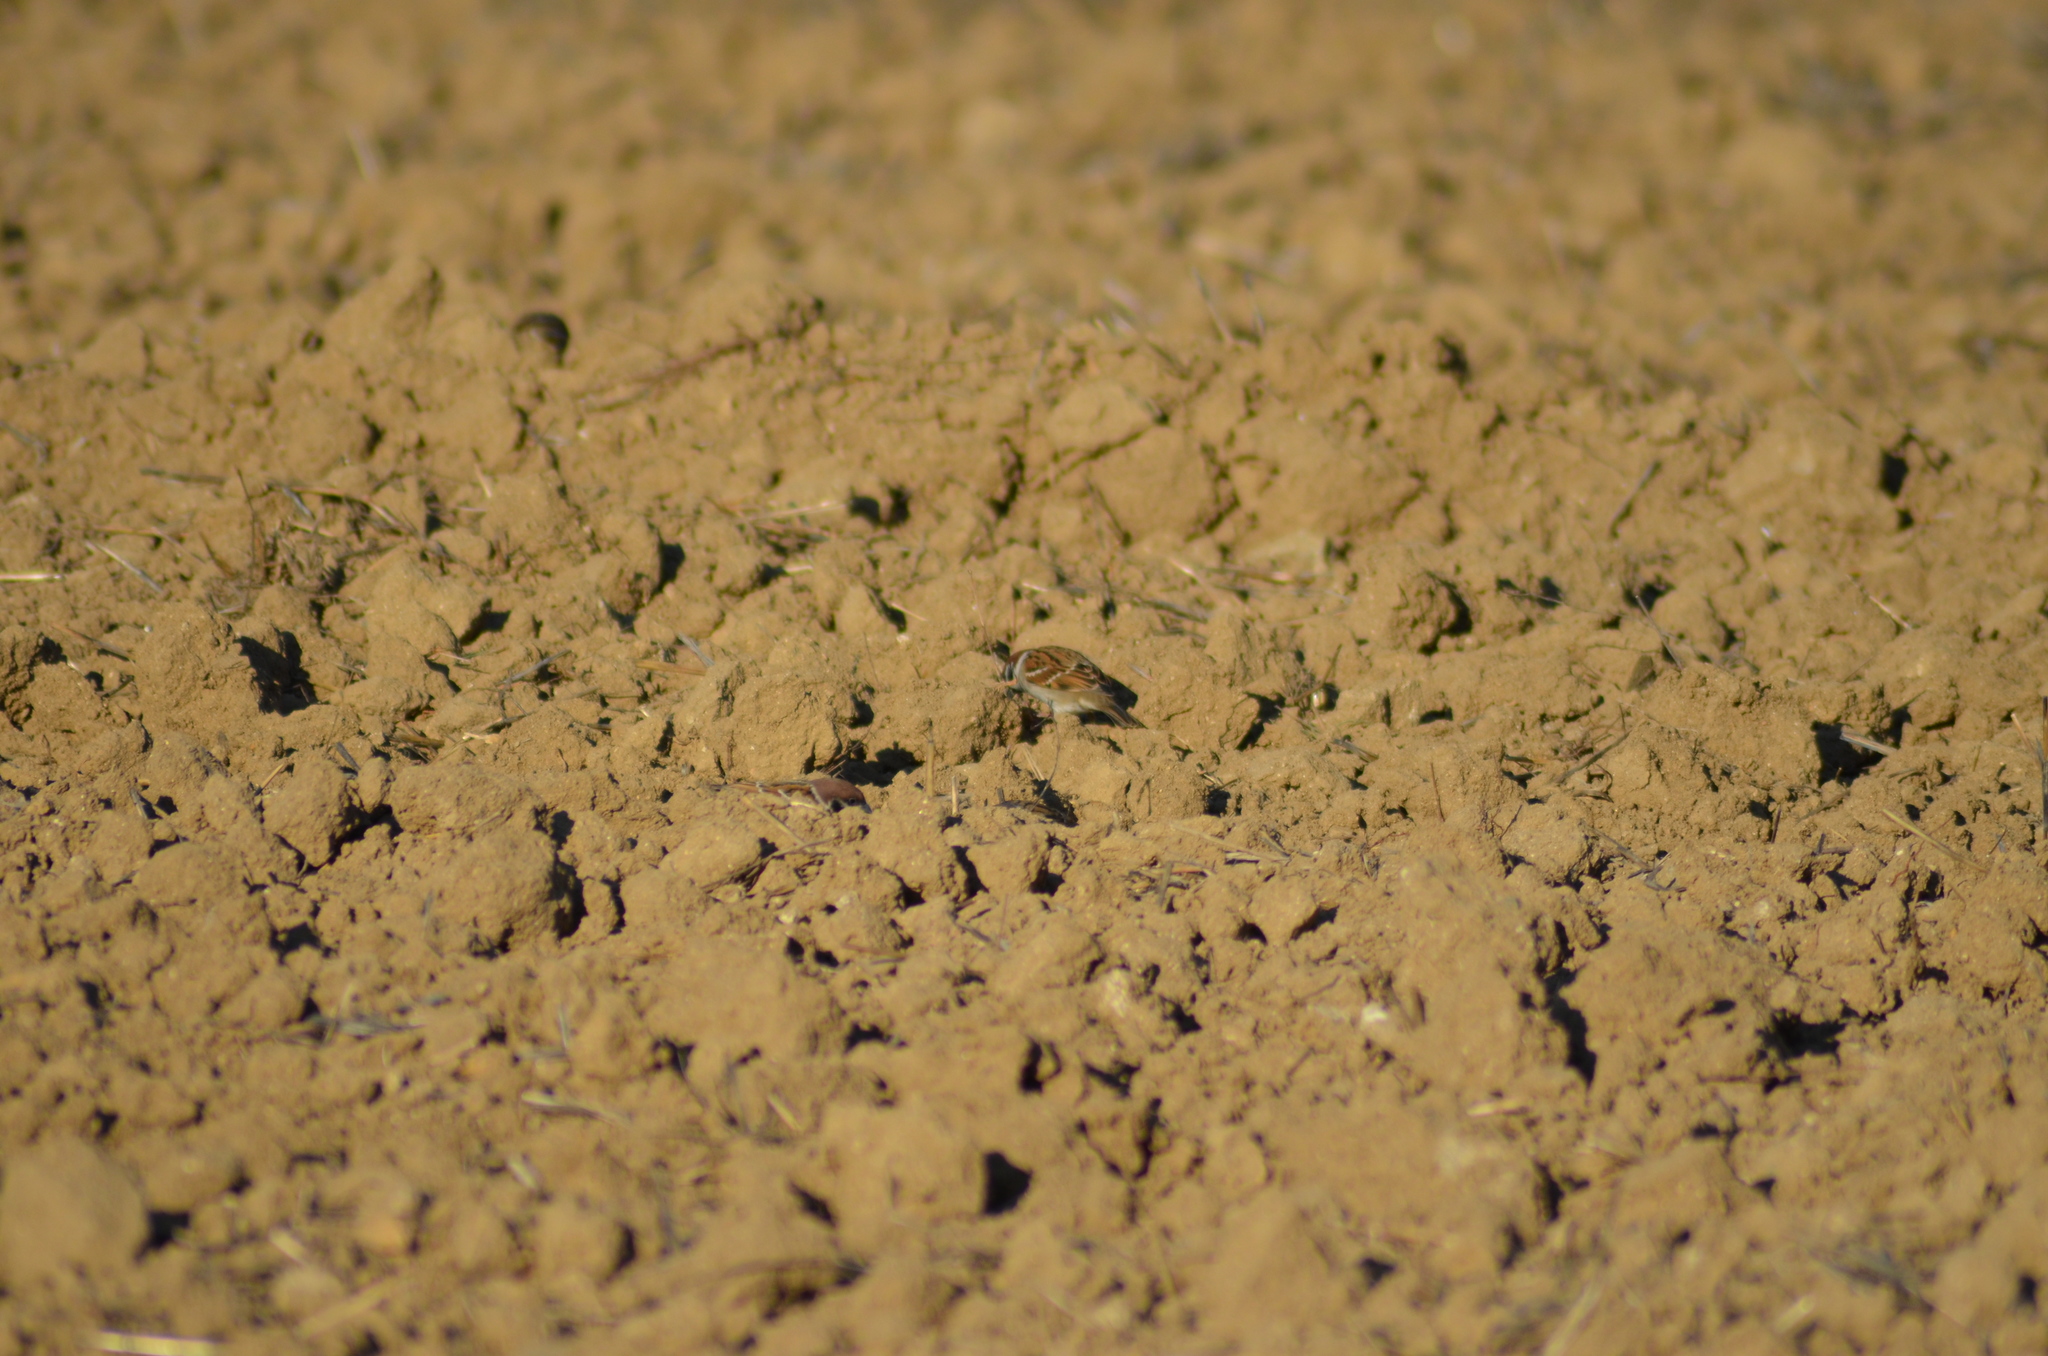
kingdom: Animalia
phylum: Chordata
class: Aves
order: Passeriformes
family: Passeridae
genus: Passer
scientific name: Passer montanus
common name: Eurasian tree sparrow
